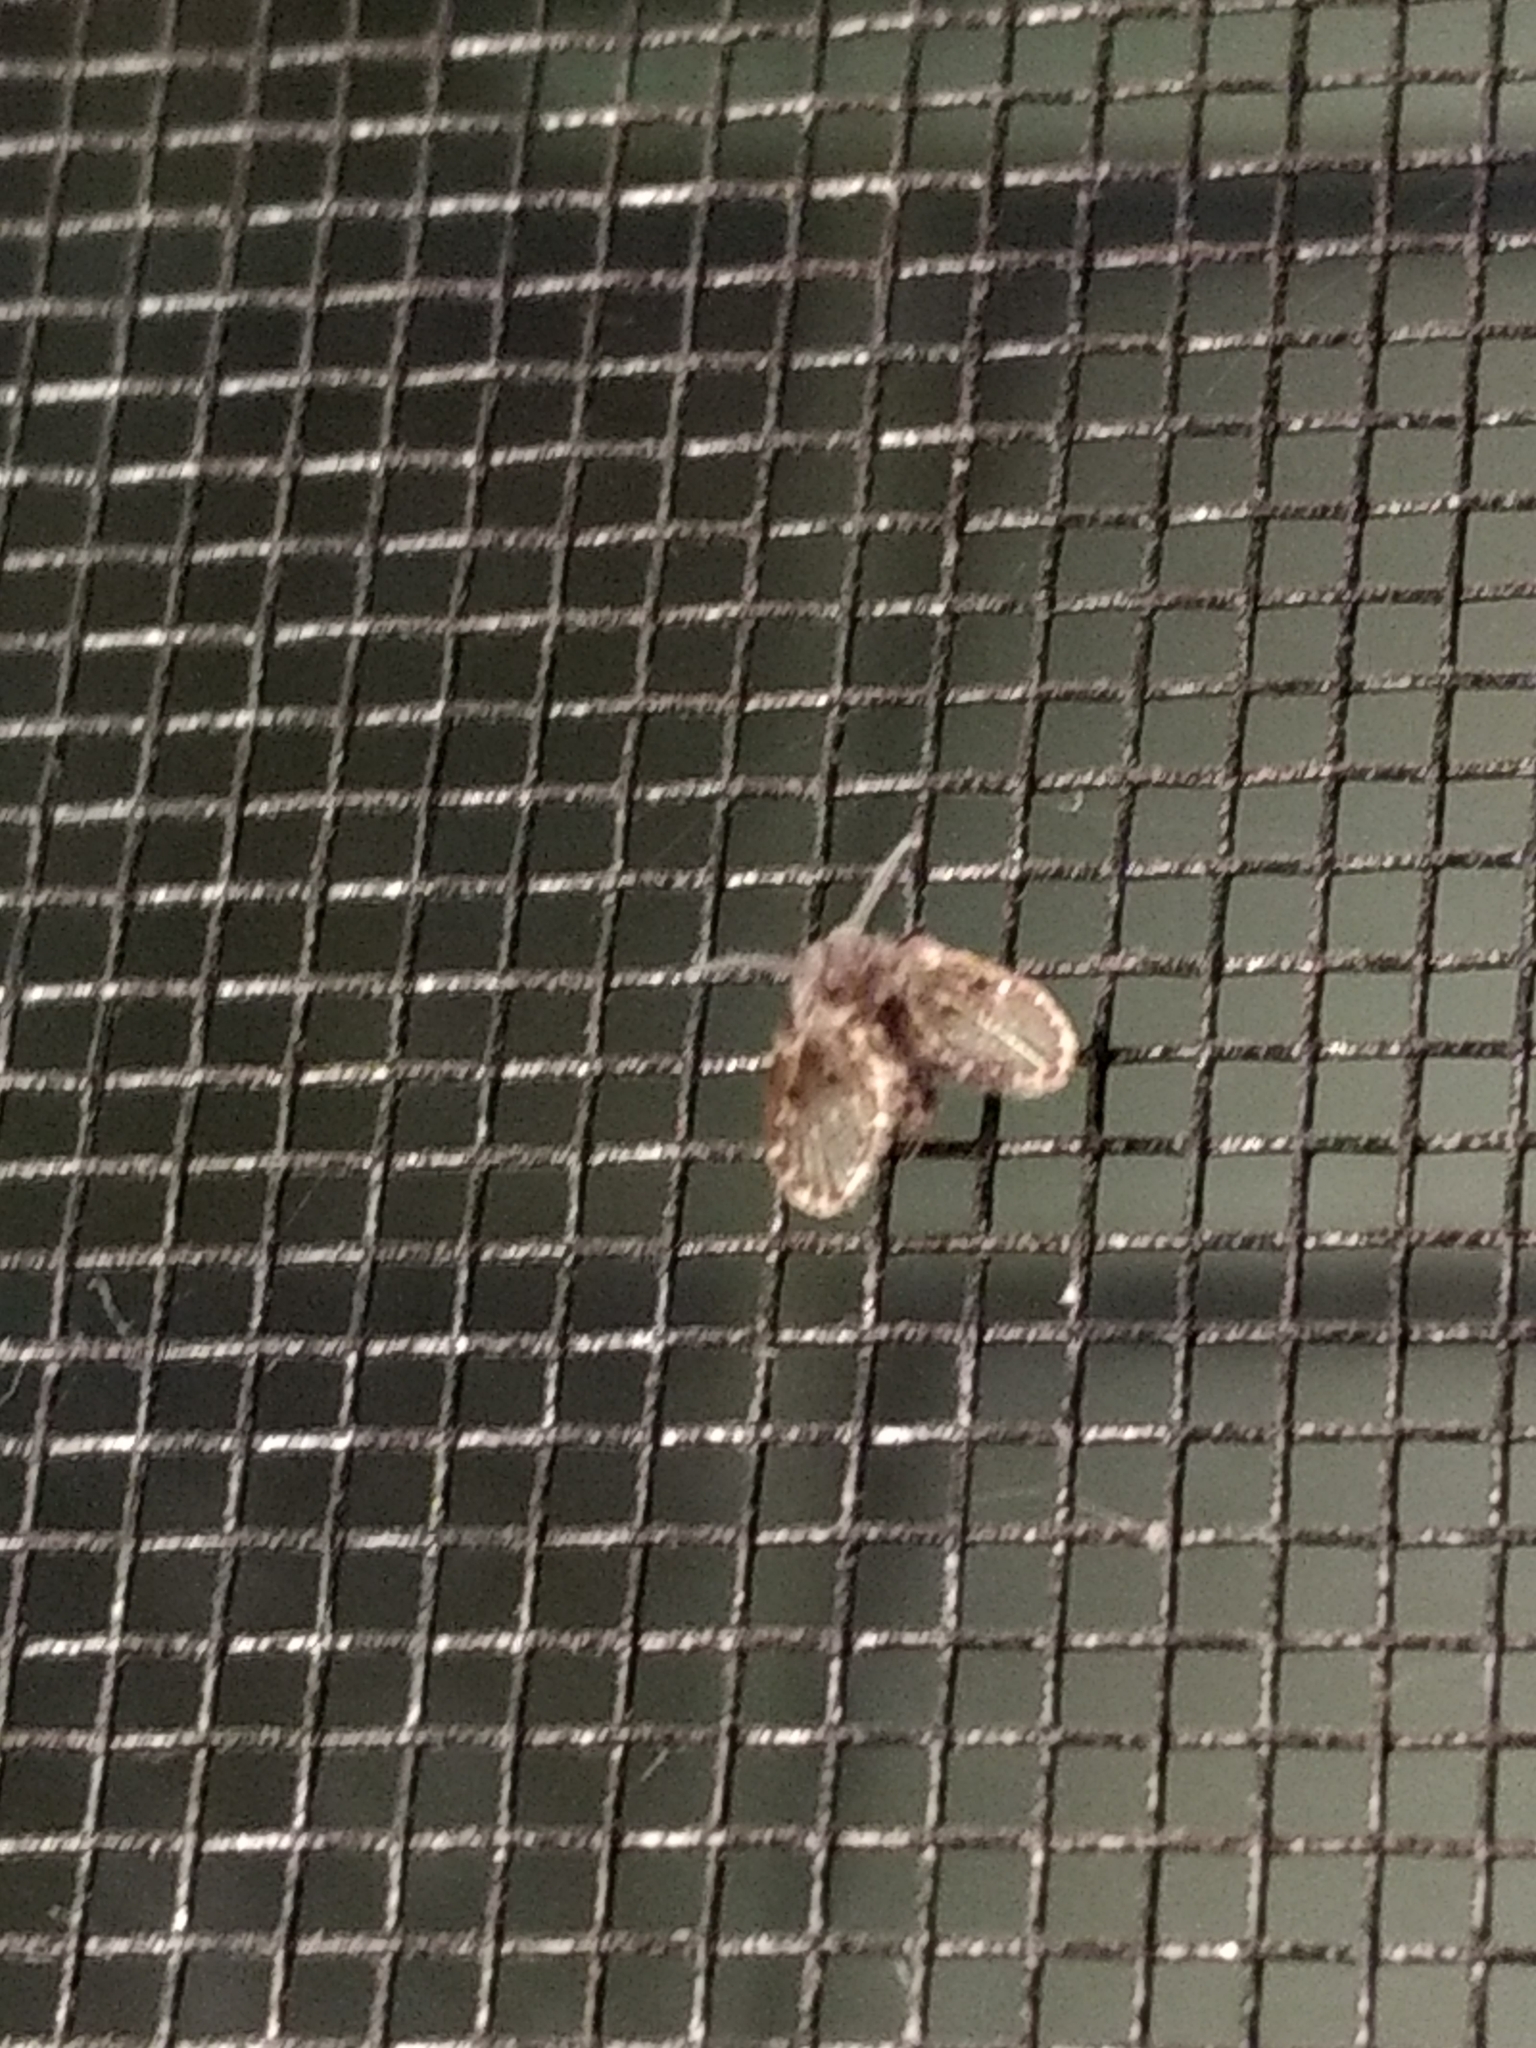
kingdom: Animalia
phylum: Arthropoda
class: Insecta
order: Diptera
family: Psychodidae
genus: Clogmia
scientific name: Clogmia albipunctatus
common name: White-spotted moth fly
